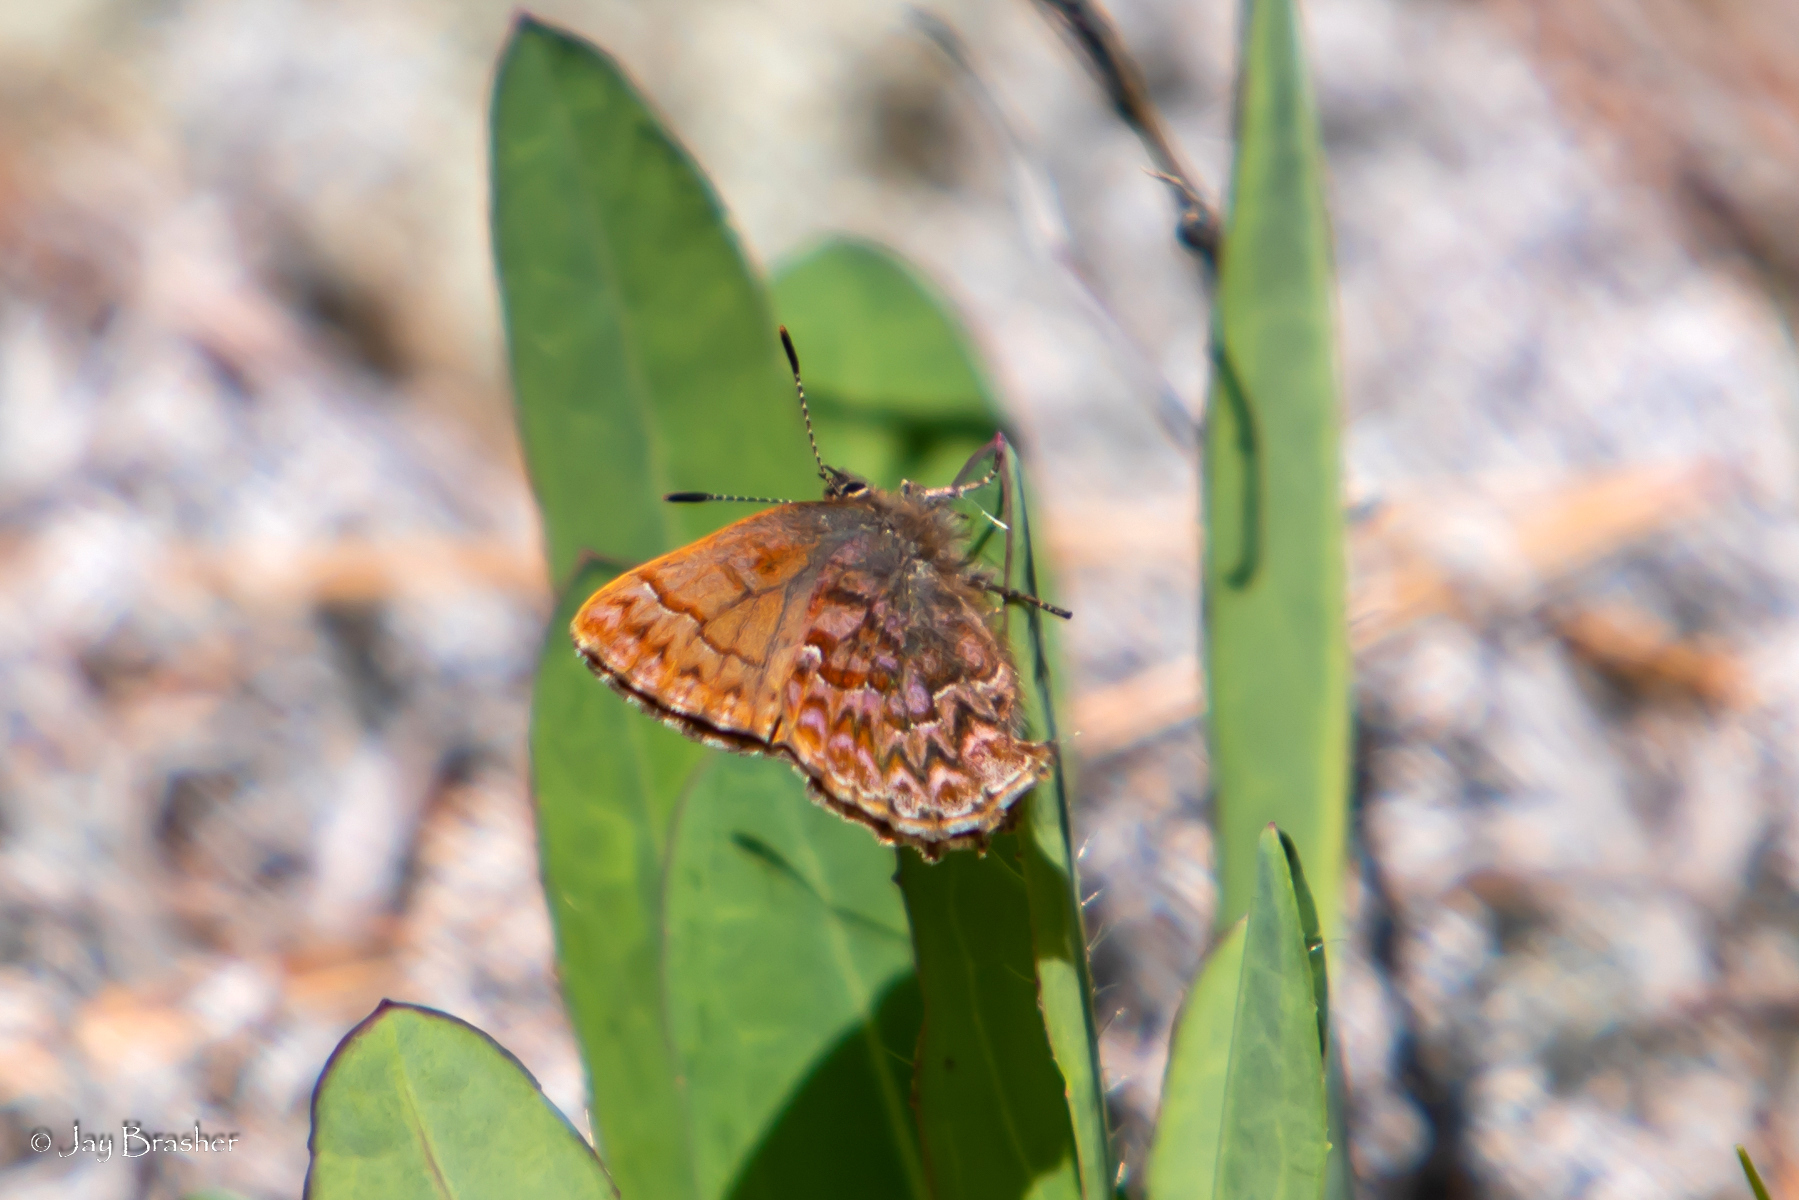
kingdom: Animalia
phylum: Arthropoda
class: Insecta
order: Lepidoptera
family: Lycaenidae
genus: Incisalia
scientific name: Incisalia eryphon
